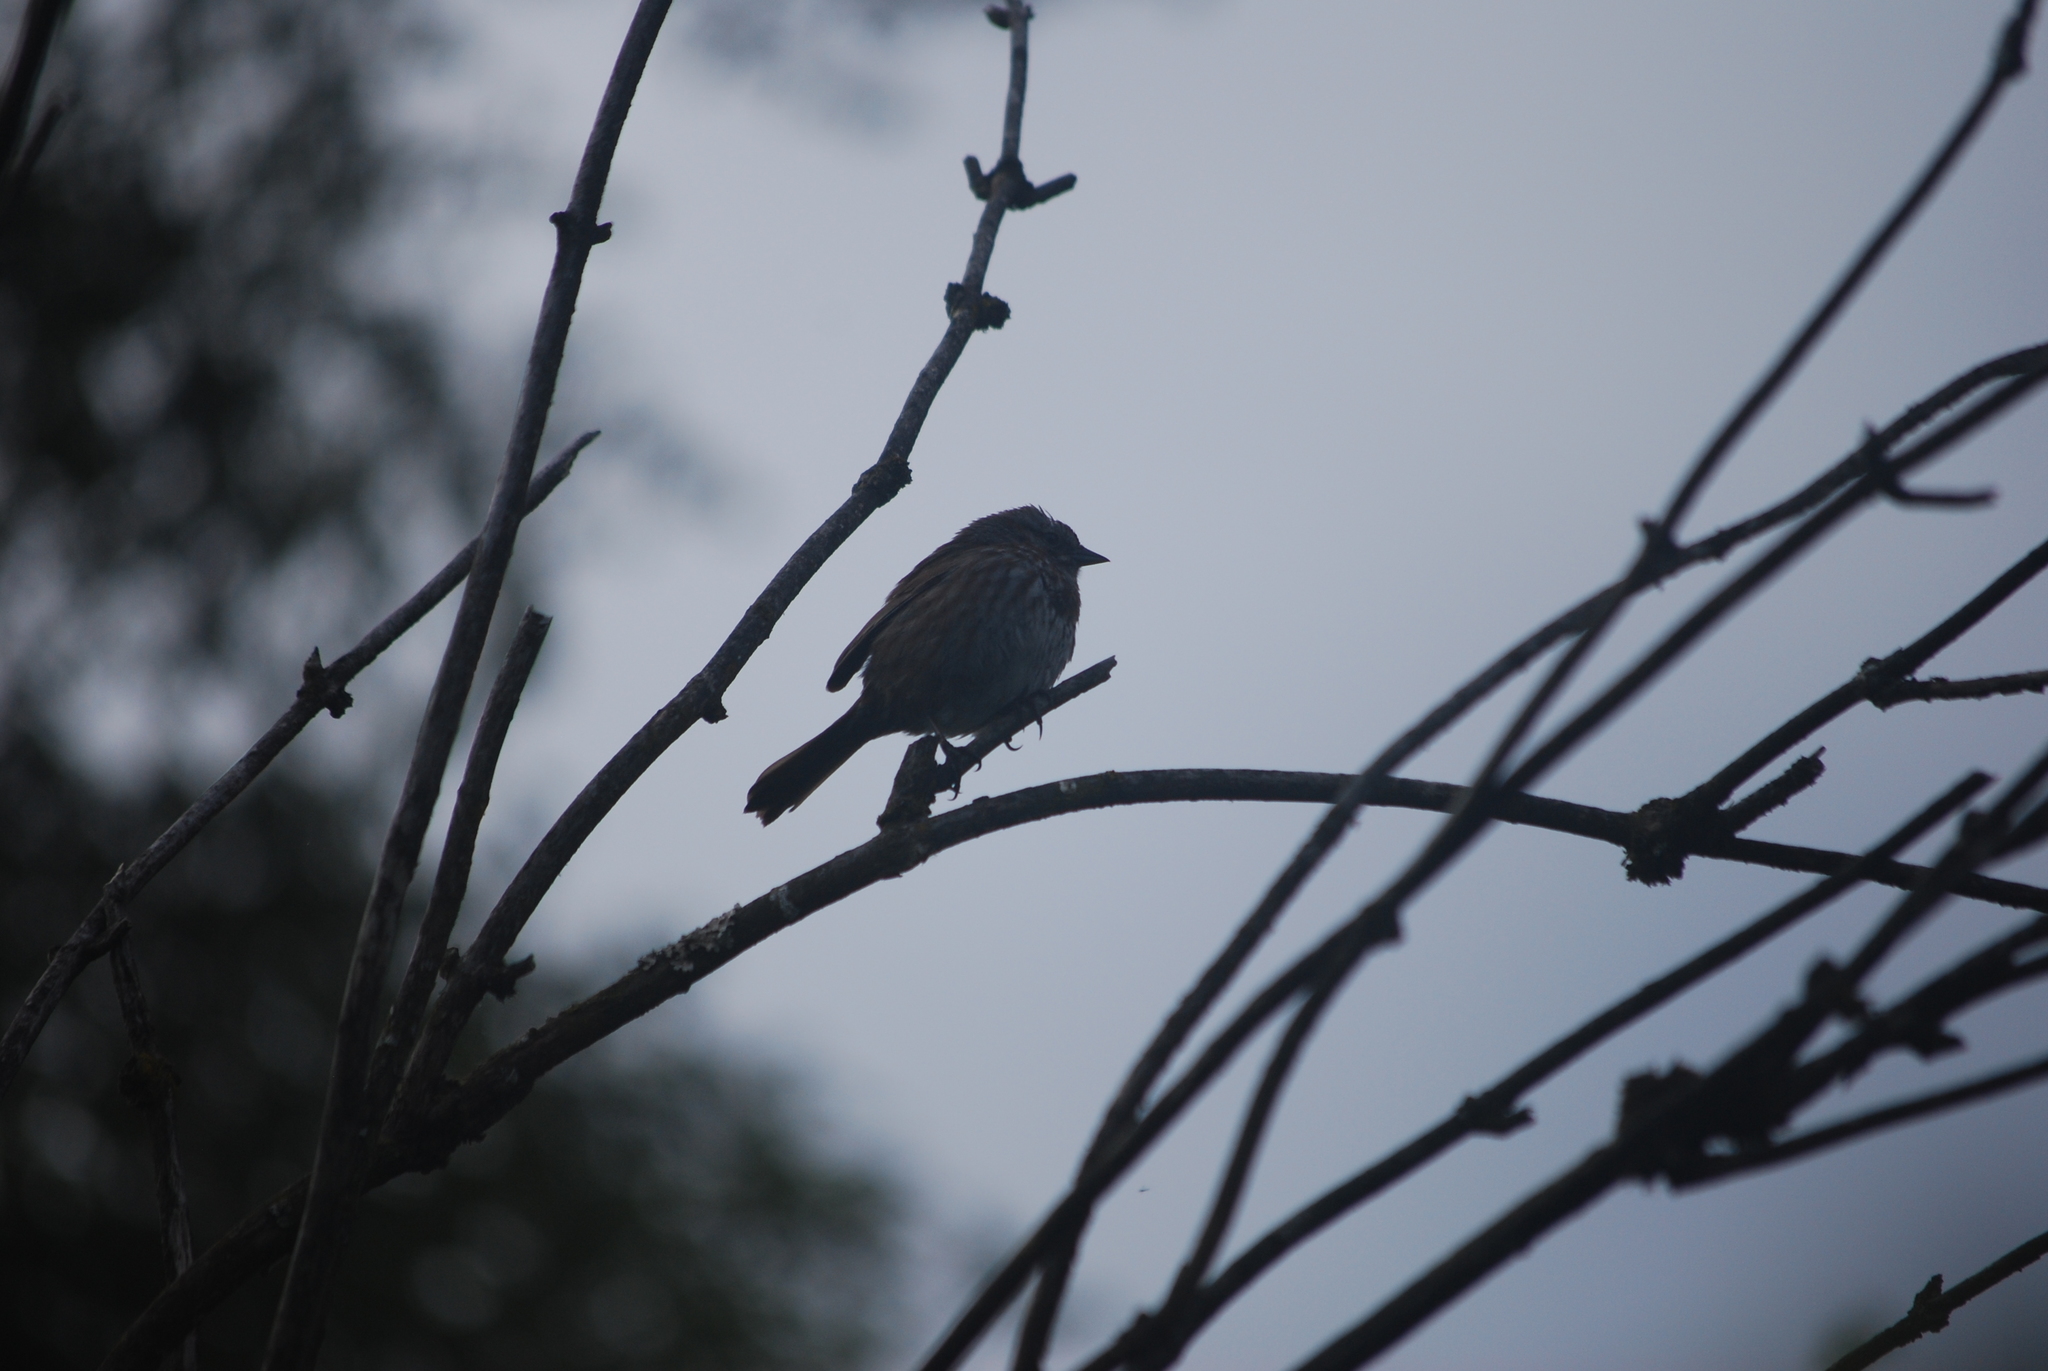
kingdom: Animalia
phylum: Chordata
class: Aves
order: Passeriformes
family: Passerellidae
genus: Melospiza
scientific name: Melospiza melodia
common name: Song sparrow
